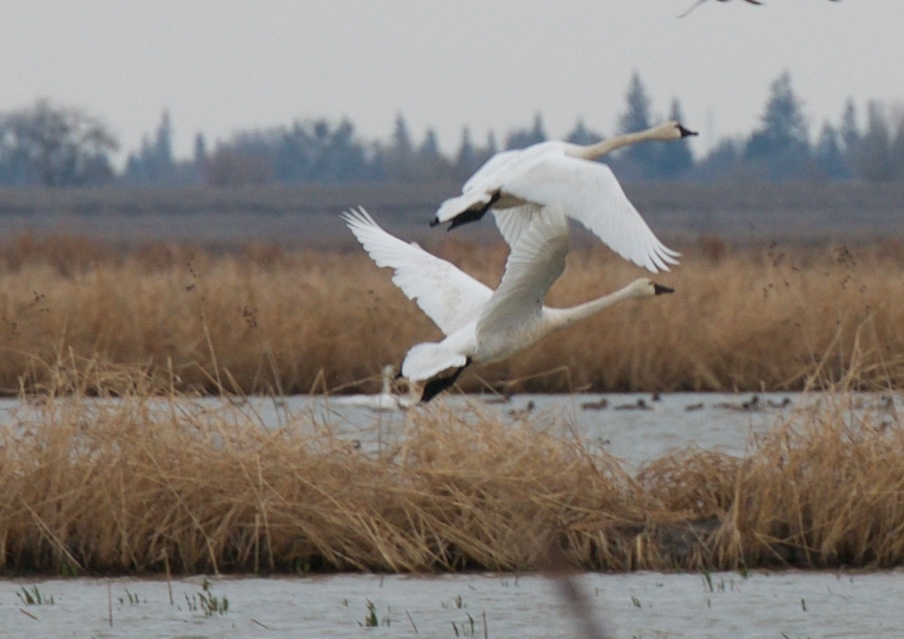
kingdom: Animalia
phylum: Chordata
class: Aves
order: Anseriformes
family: Anatidae
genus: Cygnus
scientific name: Cygnus columbianus
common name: Tundra swan
